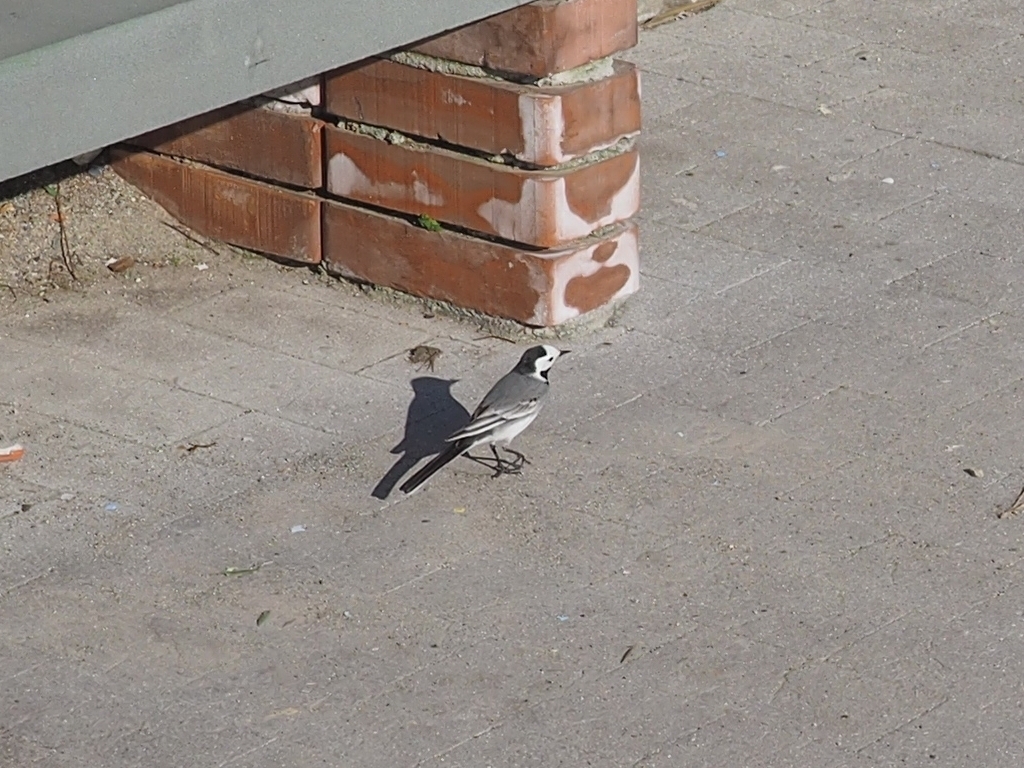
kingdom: Animalia
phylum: Chordata
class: Aves
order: Passeriformes
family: Motacillidae
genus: Motacilla
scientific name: Motacilla alba
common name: White wagtail
